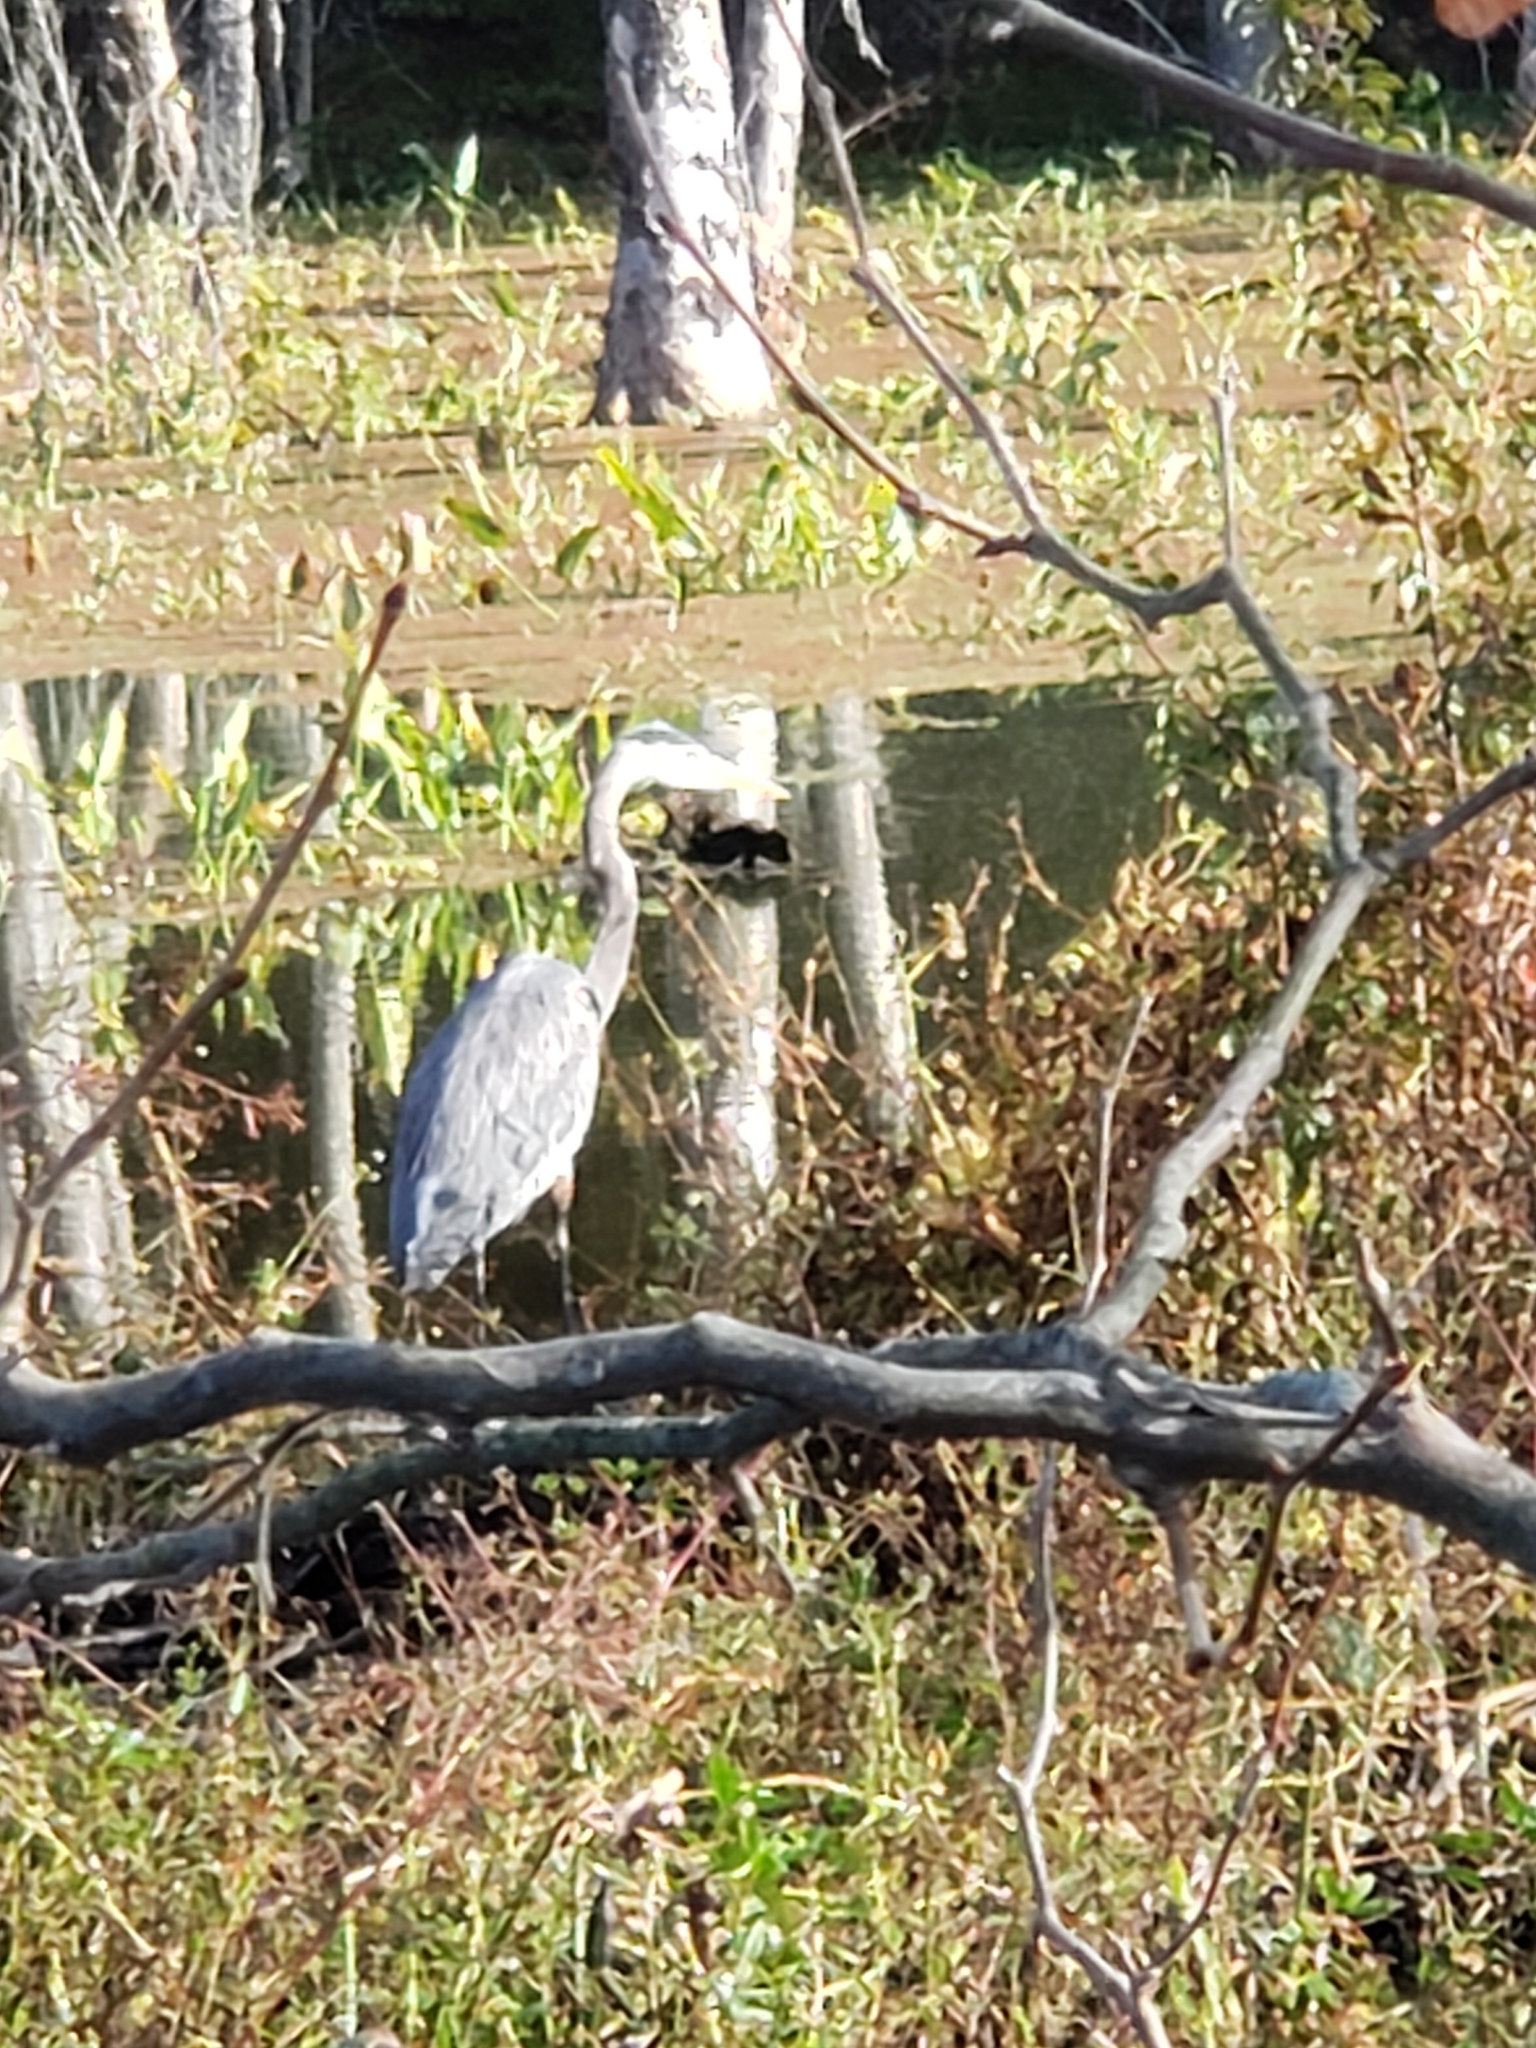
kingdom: Animalia
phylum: Chordata
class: Aves
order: Pelecaniformes
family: Ardeidae
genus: Ardea
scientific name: Ardea herodias
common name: Great blue heron
